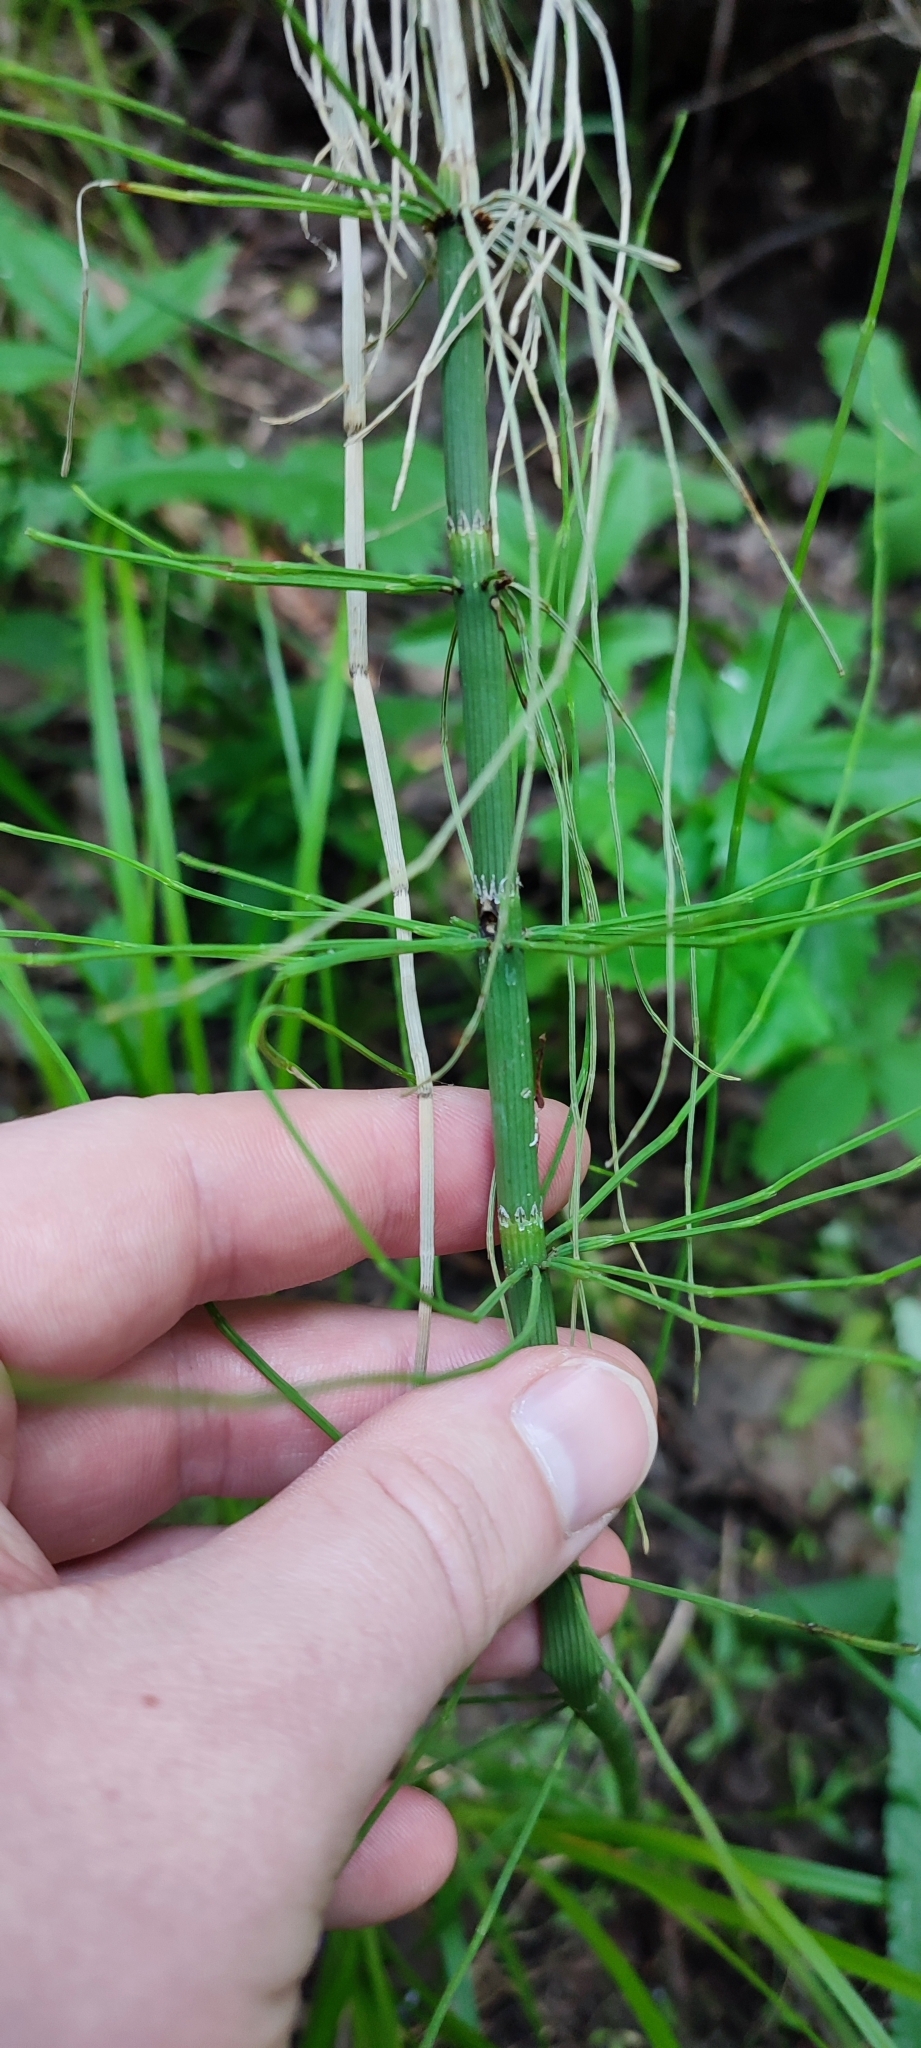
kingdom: Plantae
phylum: Tracheophyta
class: Polypodiopsida
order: Equisetales
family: Equisetaceae
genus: Equisetum
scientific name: Equisetum fluviatile
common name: Water horsetail
